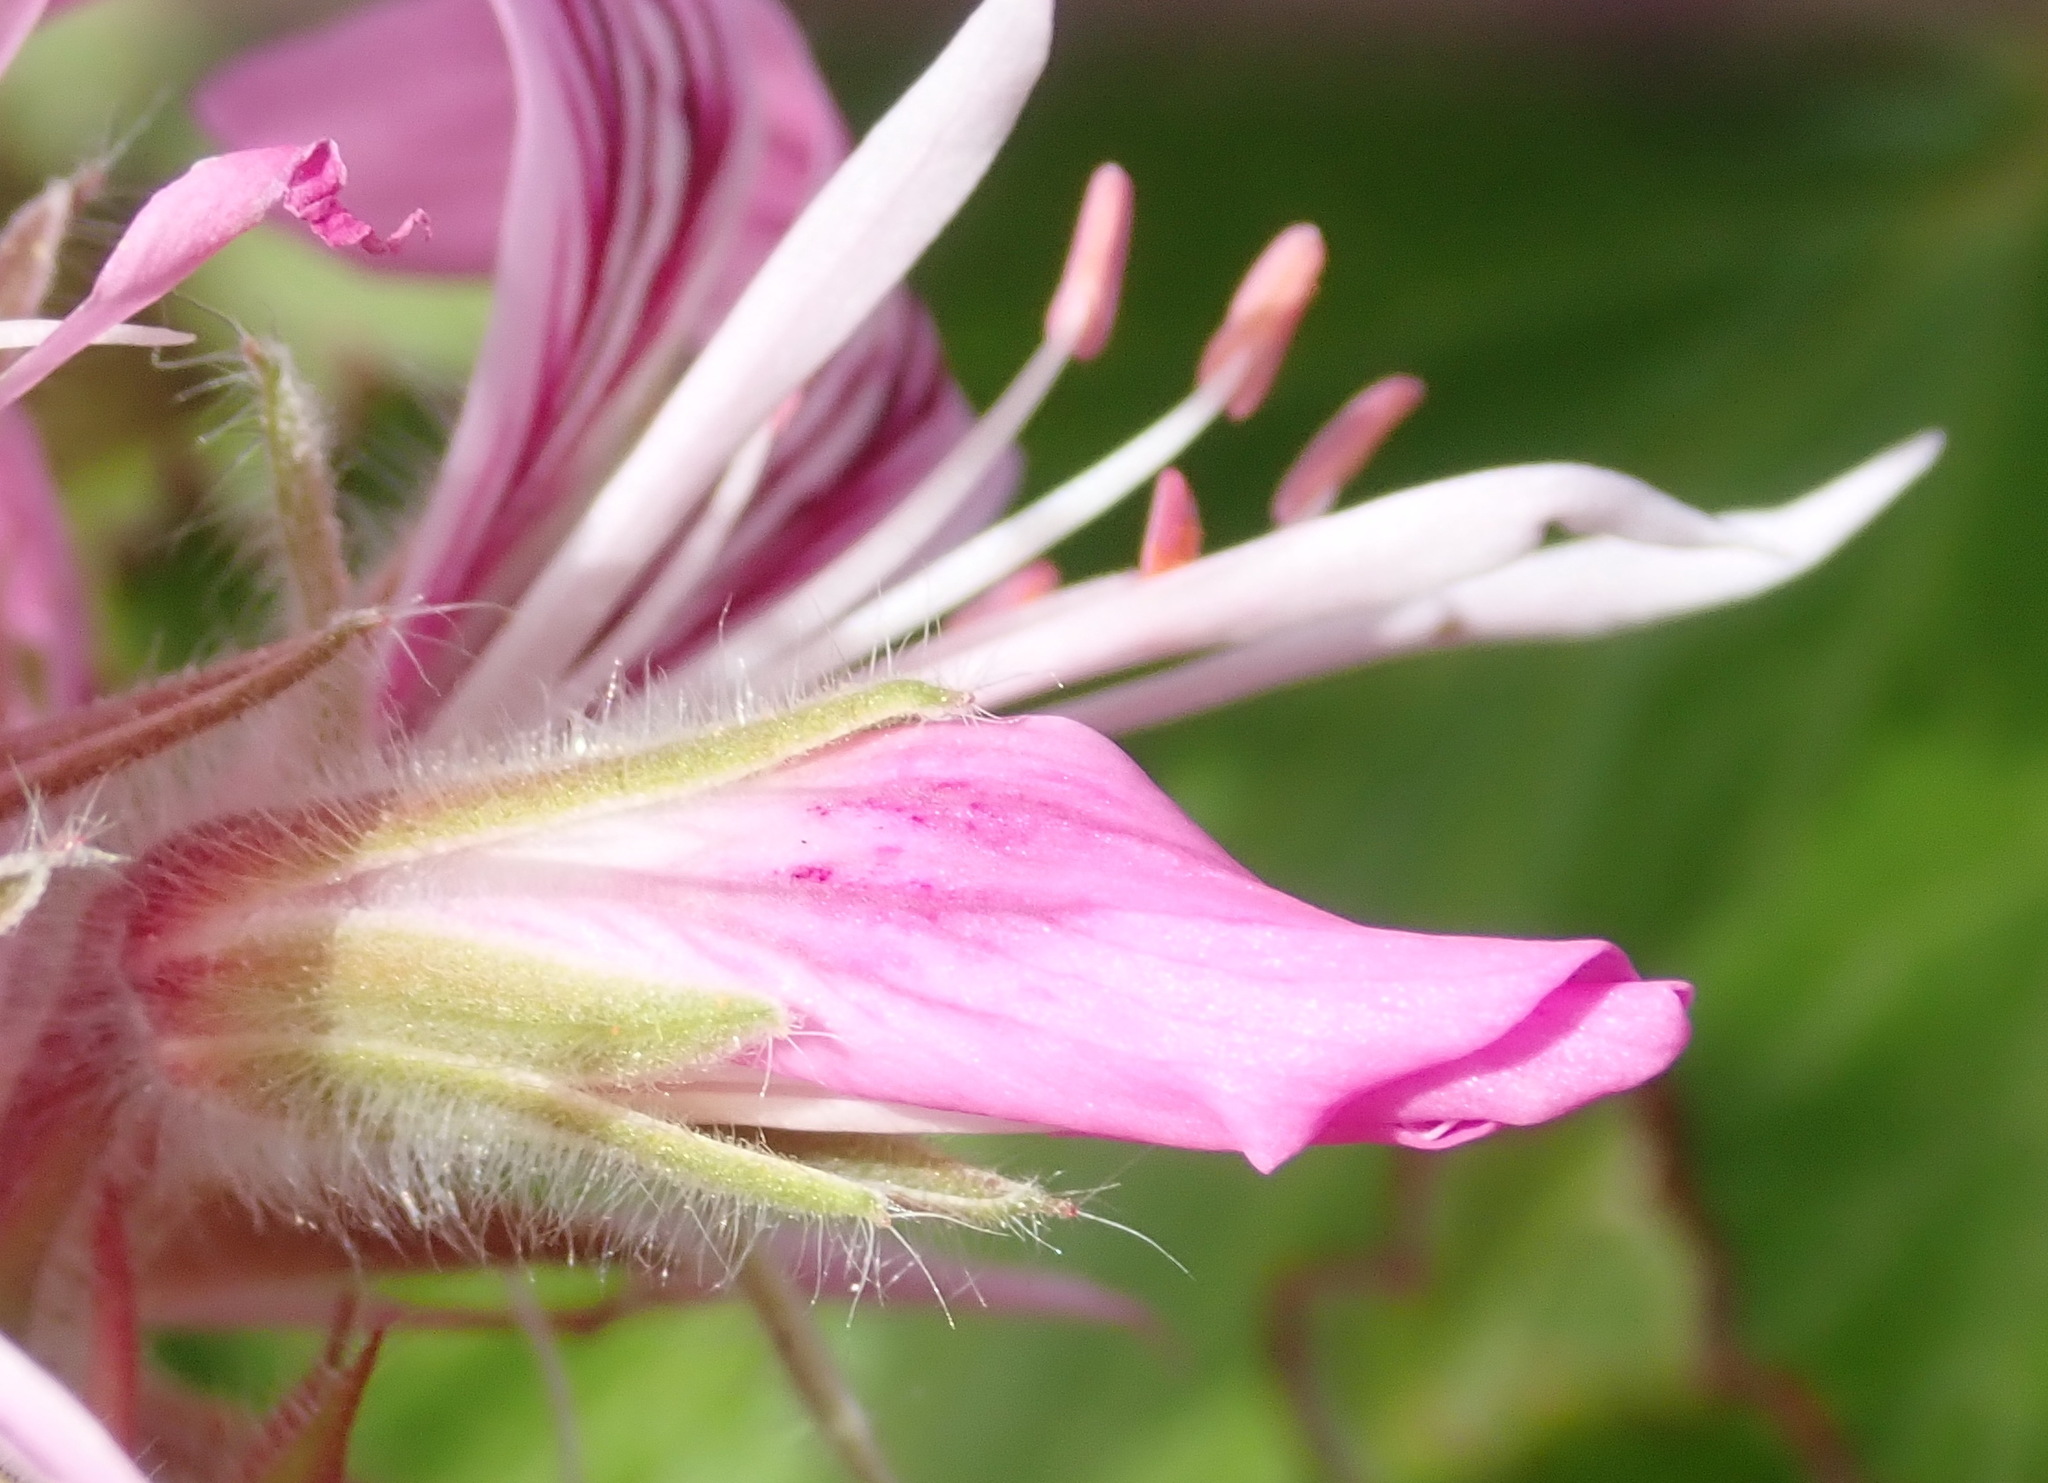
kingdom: Plantae
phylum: Tracheophyta
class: Magnoliopsida
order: Geraniales
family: Geraniaceae
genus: Pelargonium
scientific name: Pelargonium cordifolium
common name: Heart-leaf pelargonium
